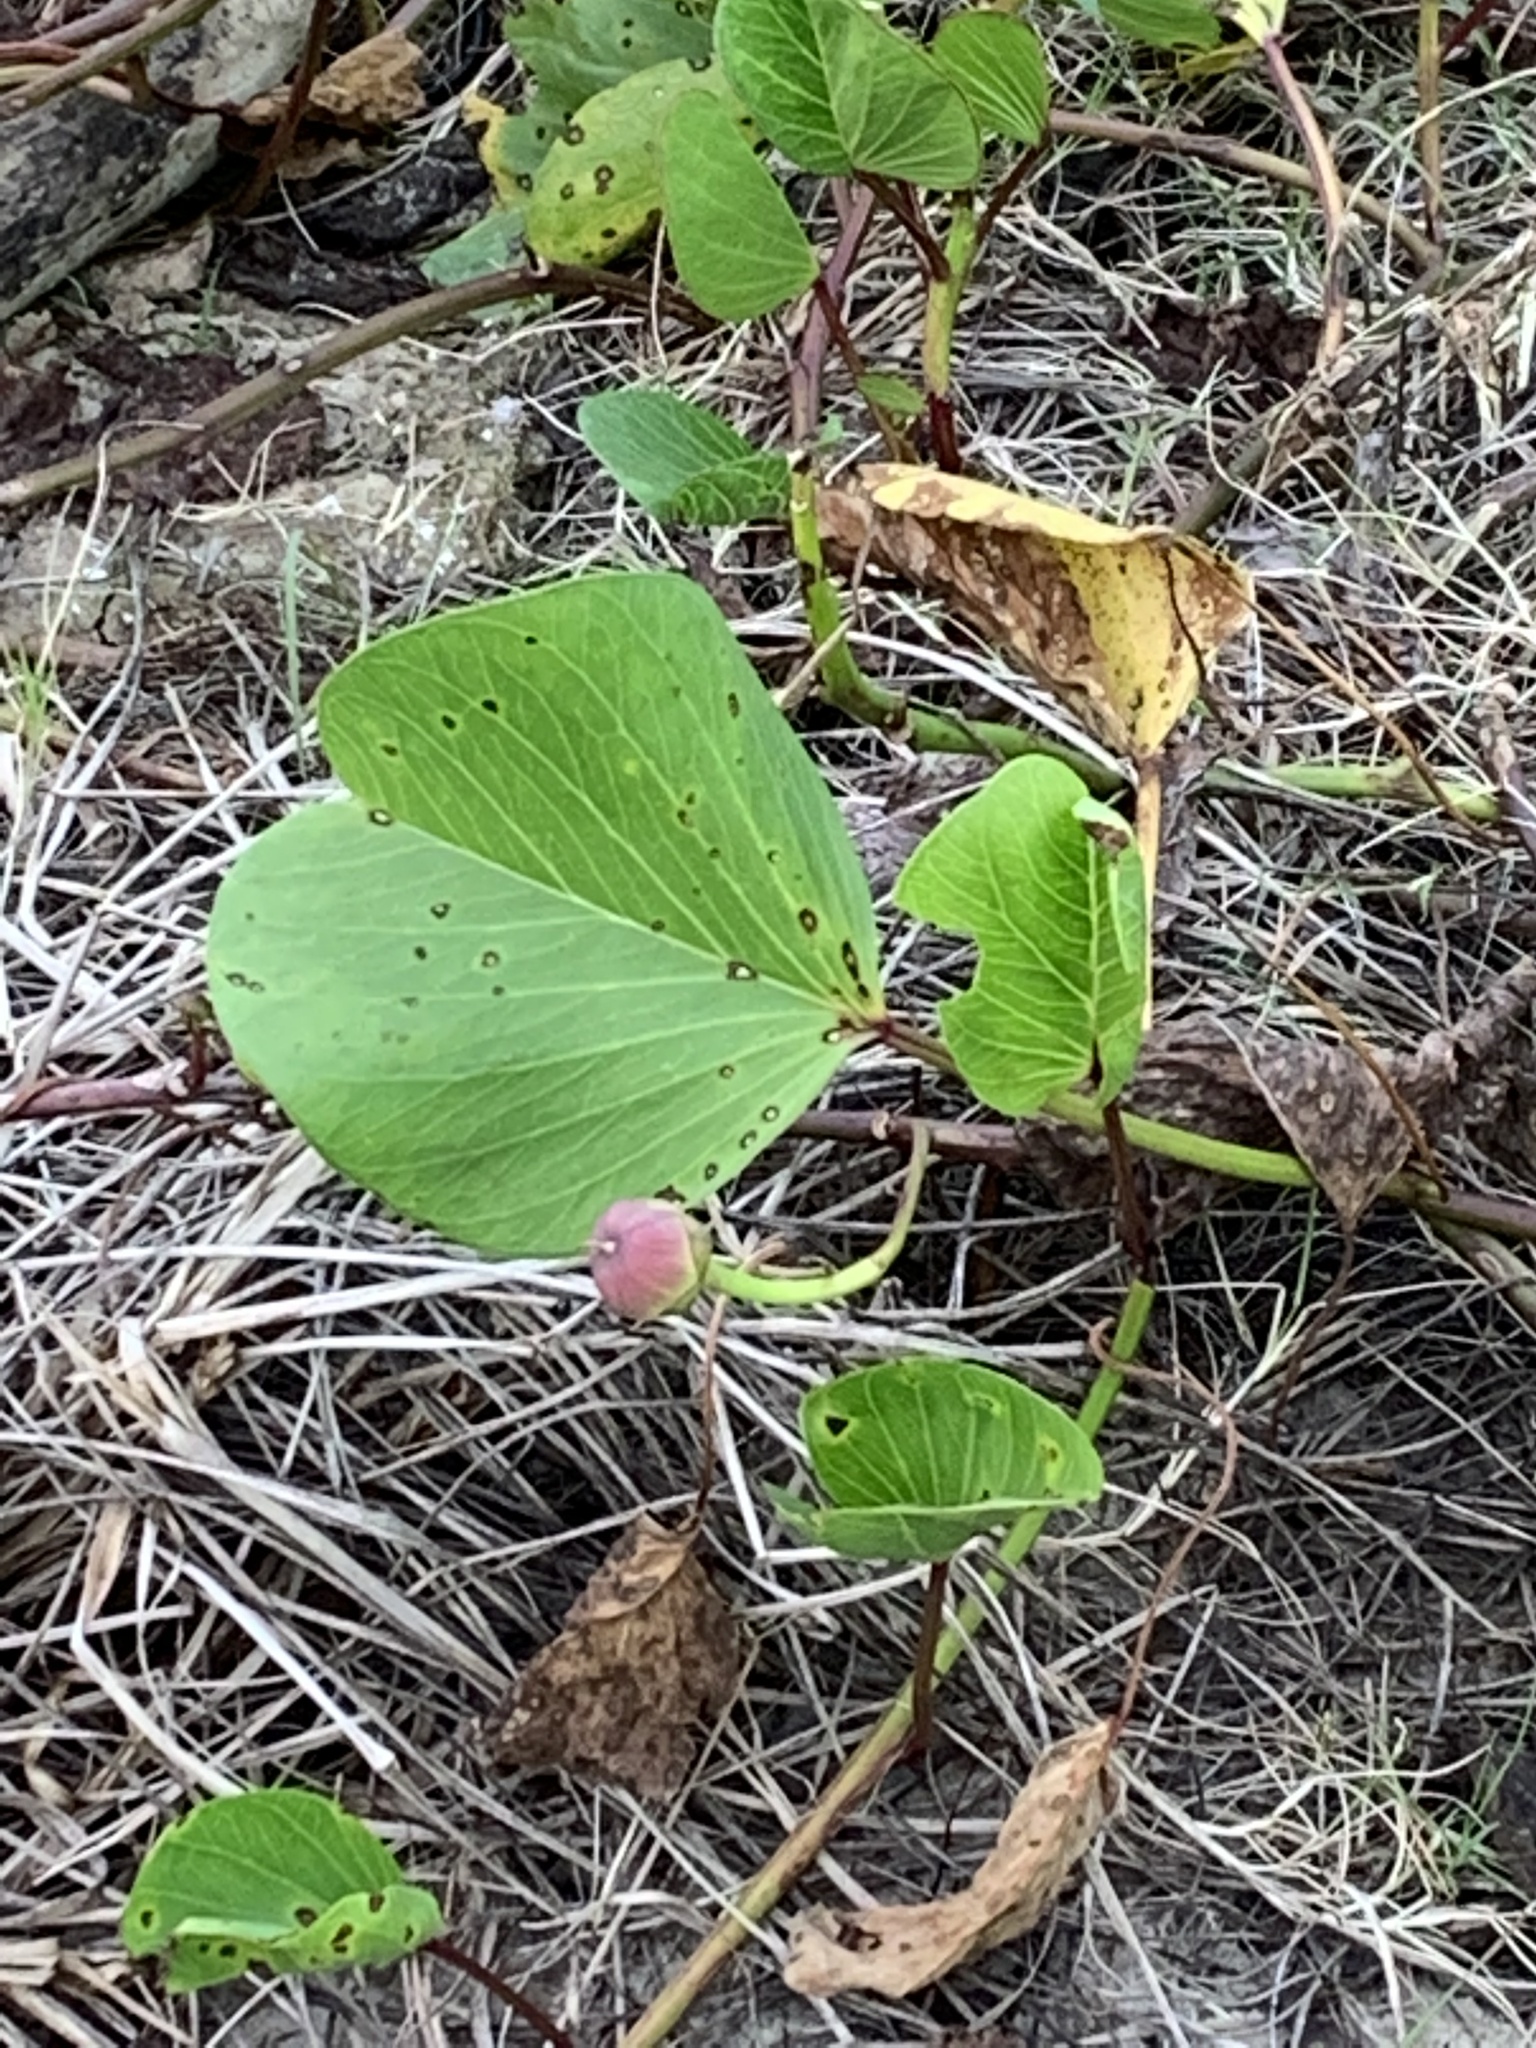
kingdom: Plantae
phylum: Tracheophyta
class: Magnoliopsida
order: Solanales
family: Convolvulaceae
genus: Ipomoea
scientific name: Ipomoea pes-caprae
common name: Beach morning glory
